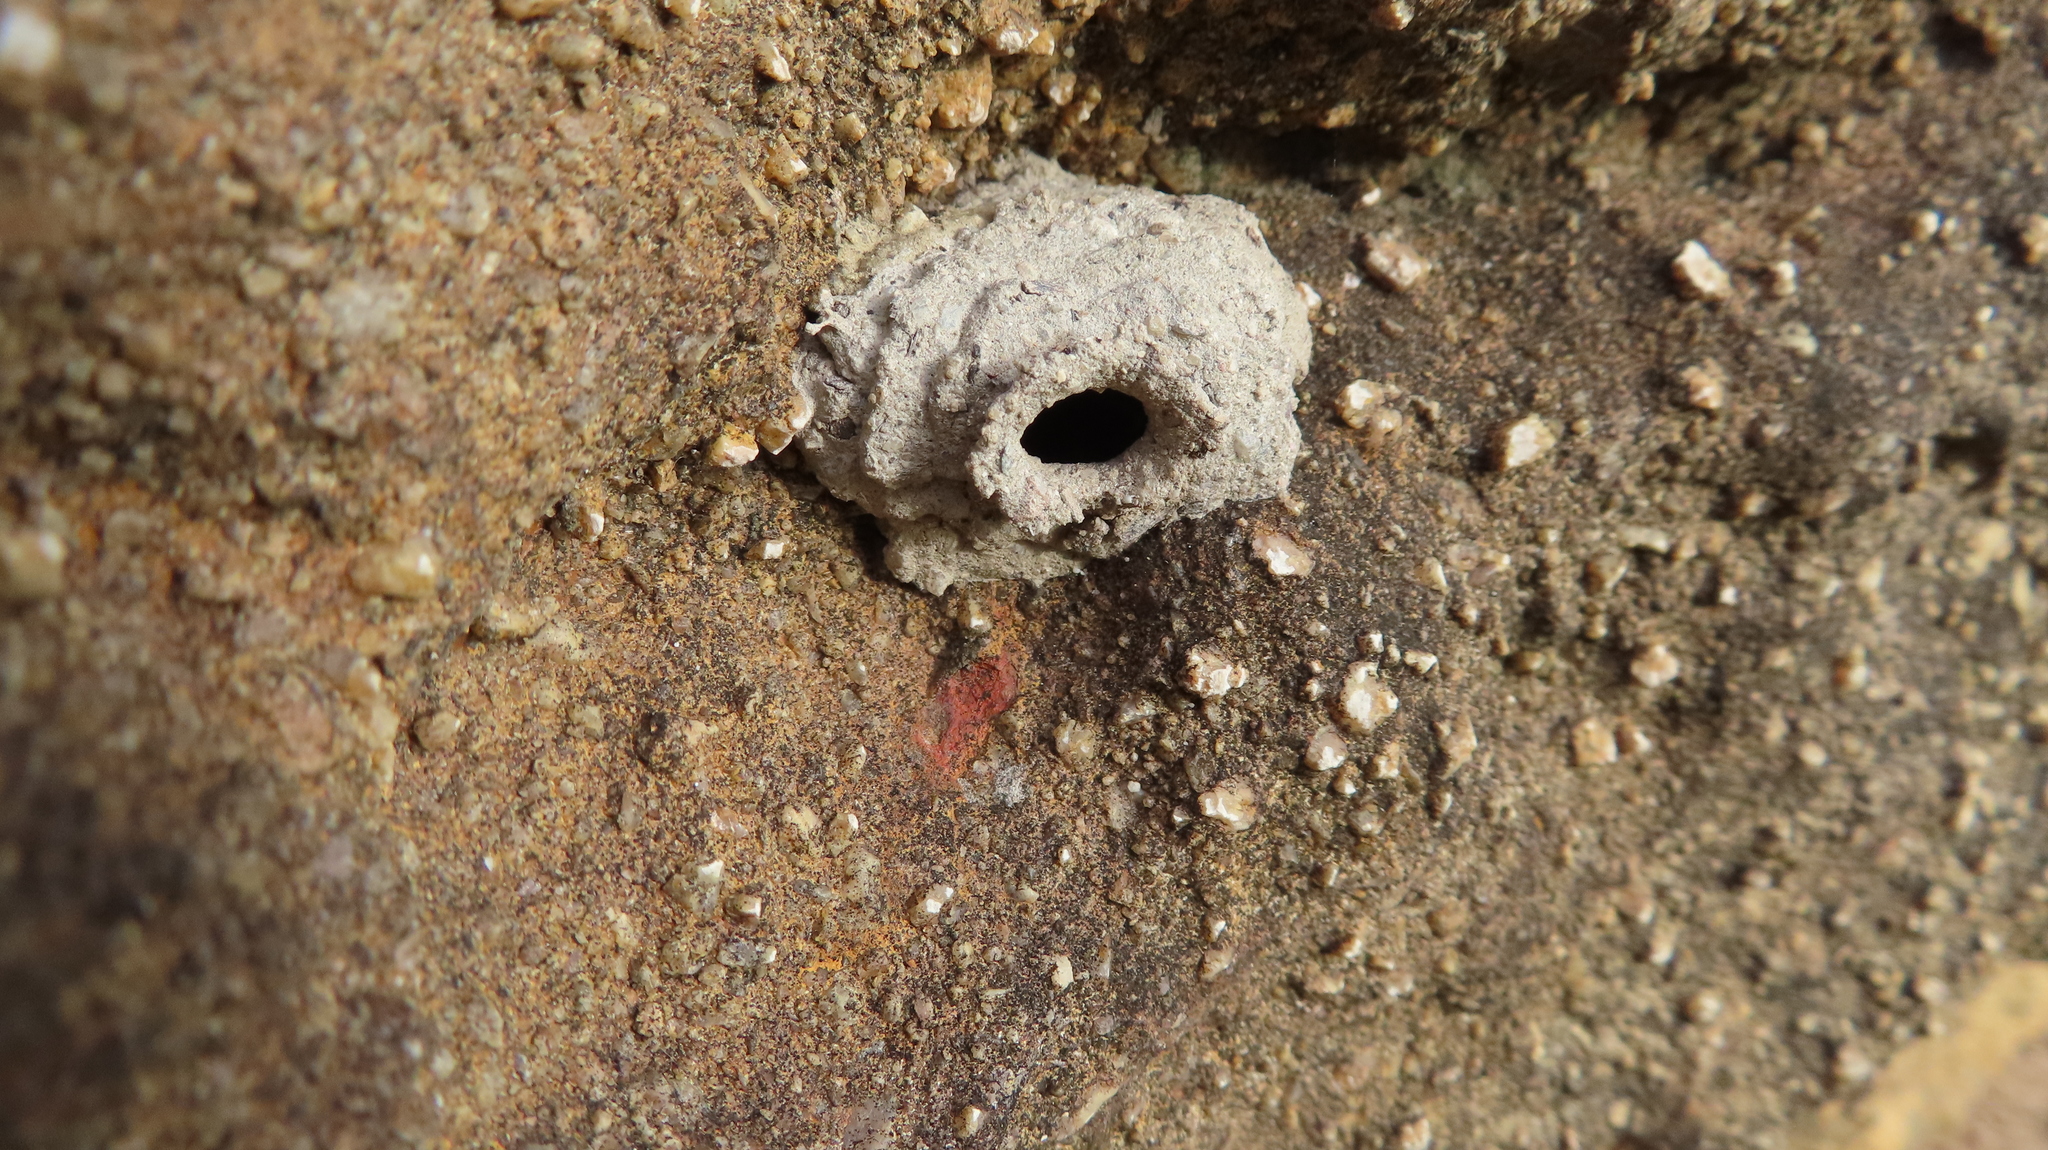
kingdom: Animalia
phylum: Arthropoda
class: Insecta
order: Hymenoptera
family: Eumenidae
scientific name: Eumenidae
